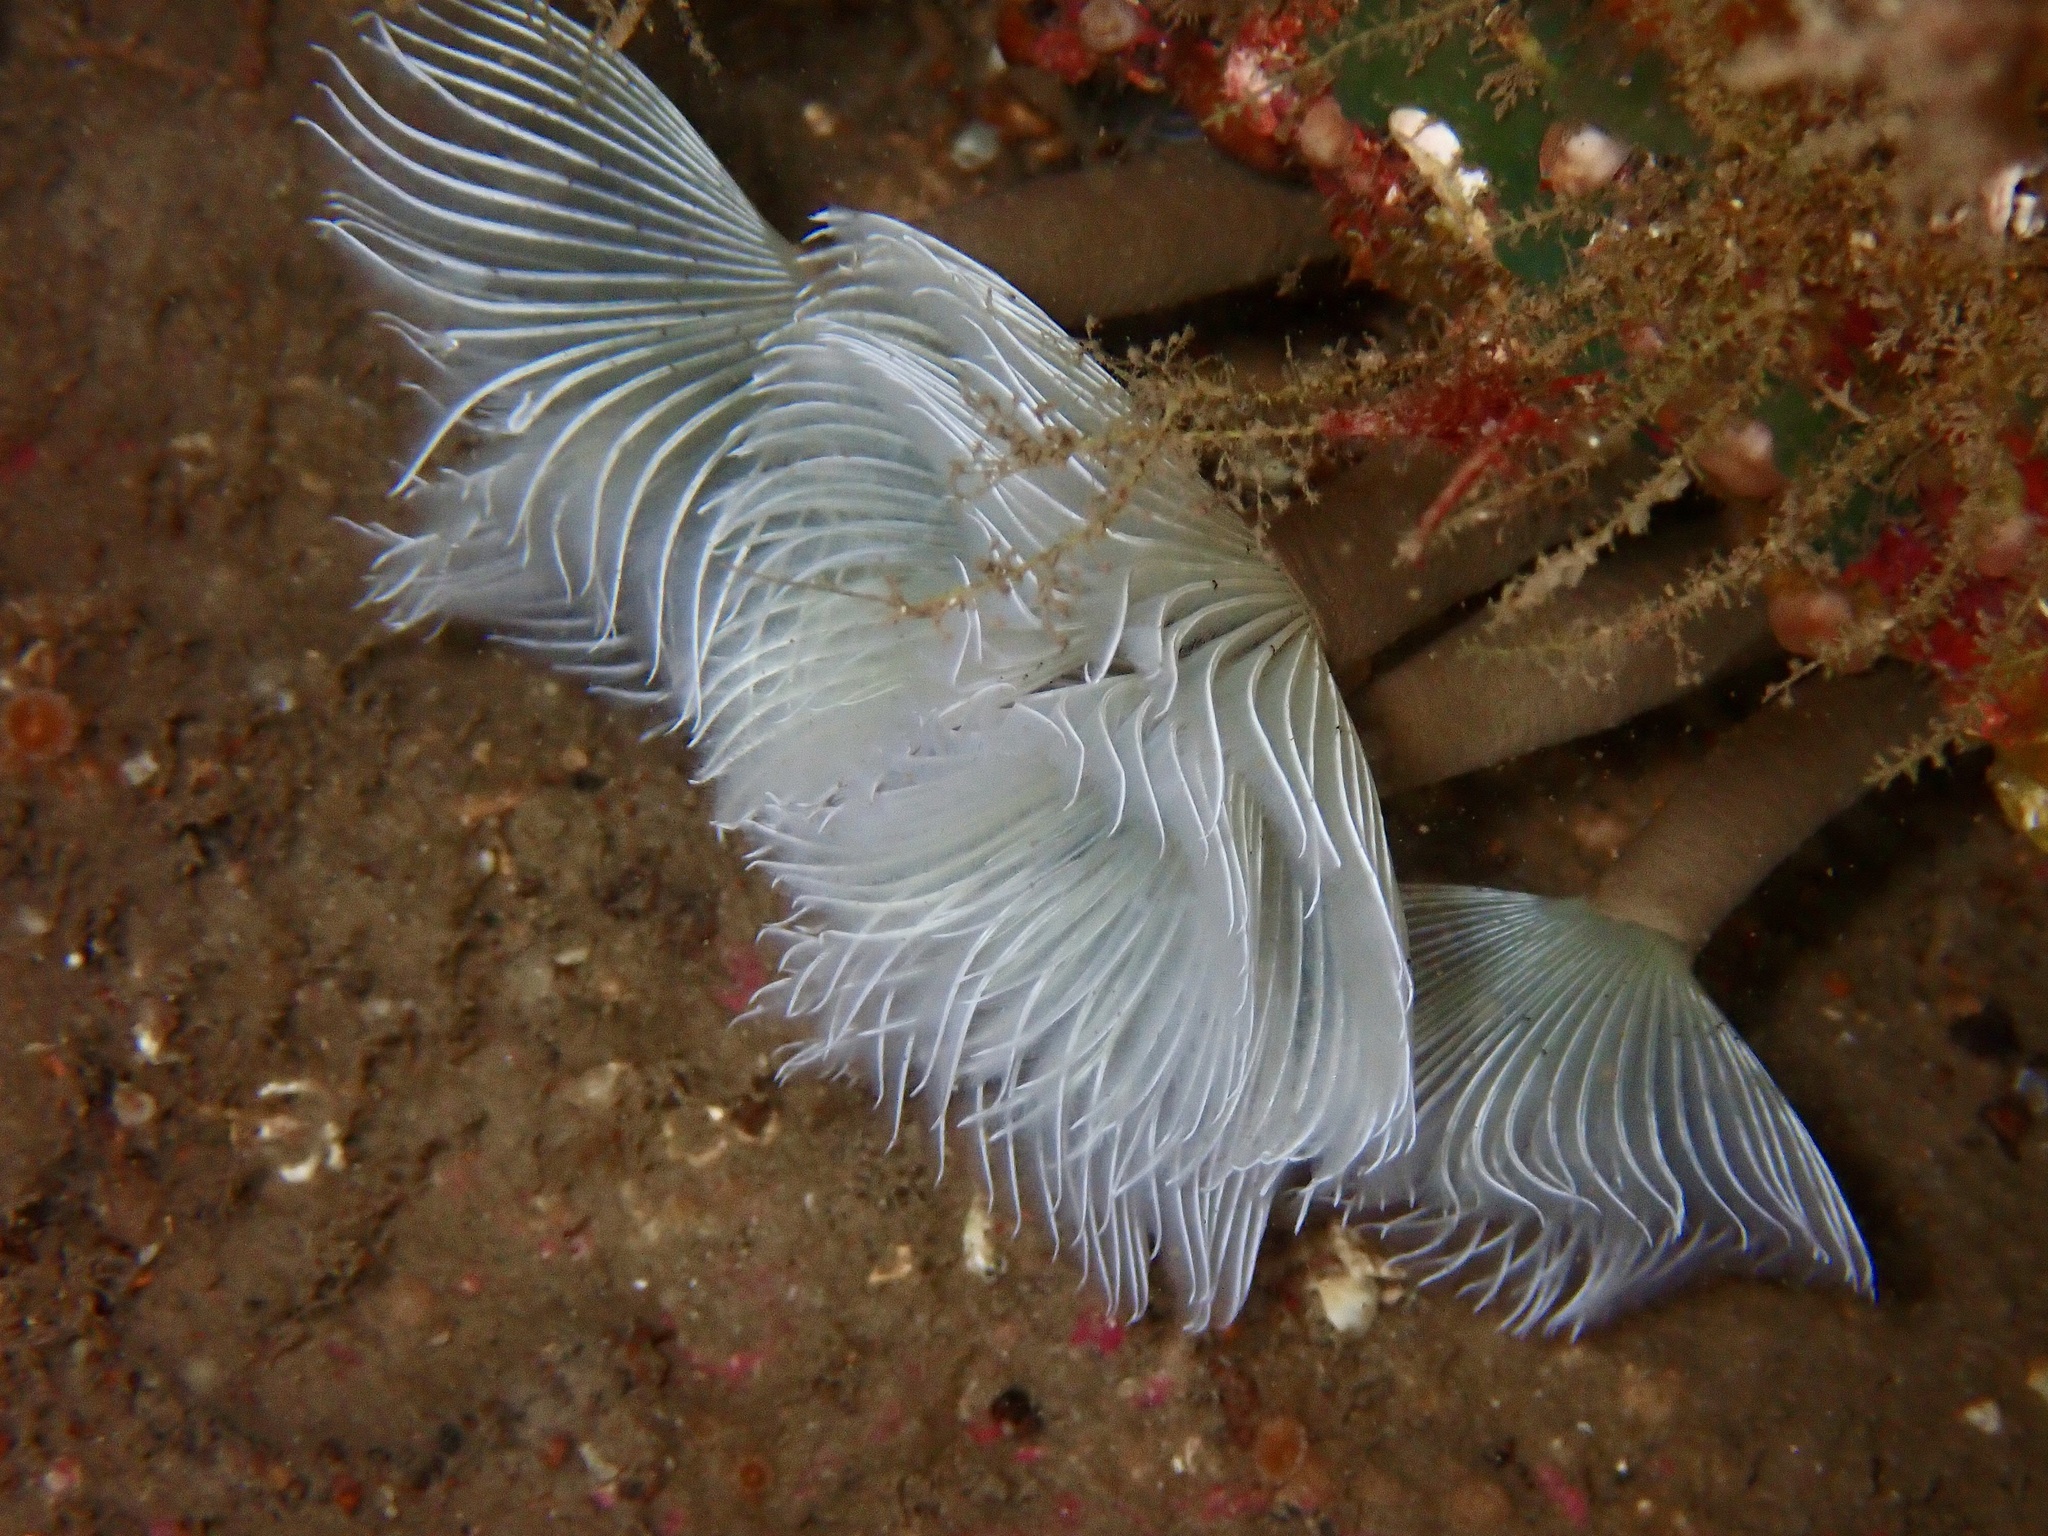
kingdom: Animalia
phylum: Annelida
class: Polychaeta
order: Sabellida
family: Sabellidae
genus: Bispira
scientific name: Bispira volutacornis
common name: Twin fan worm
